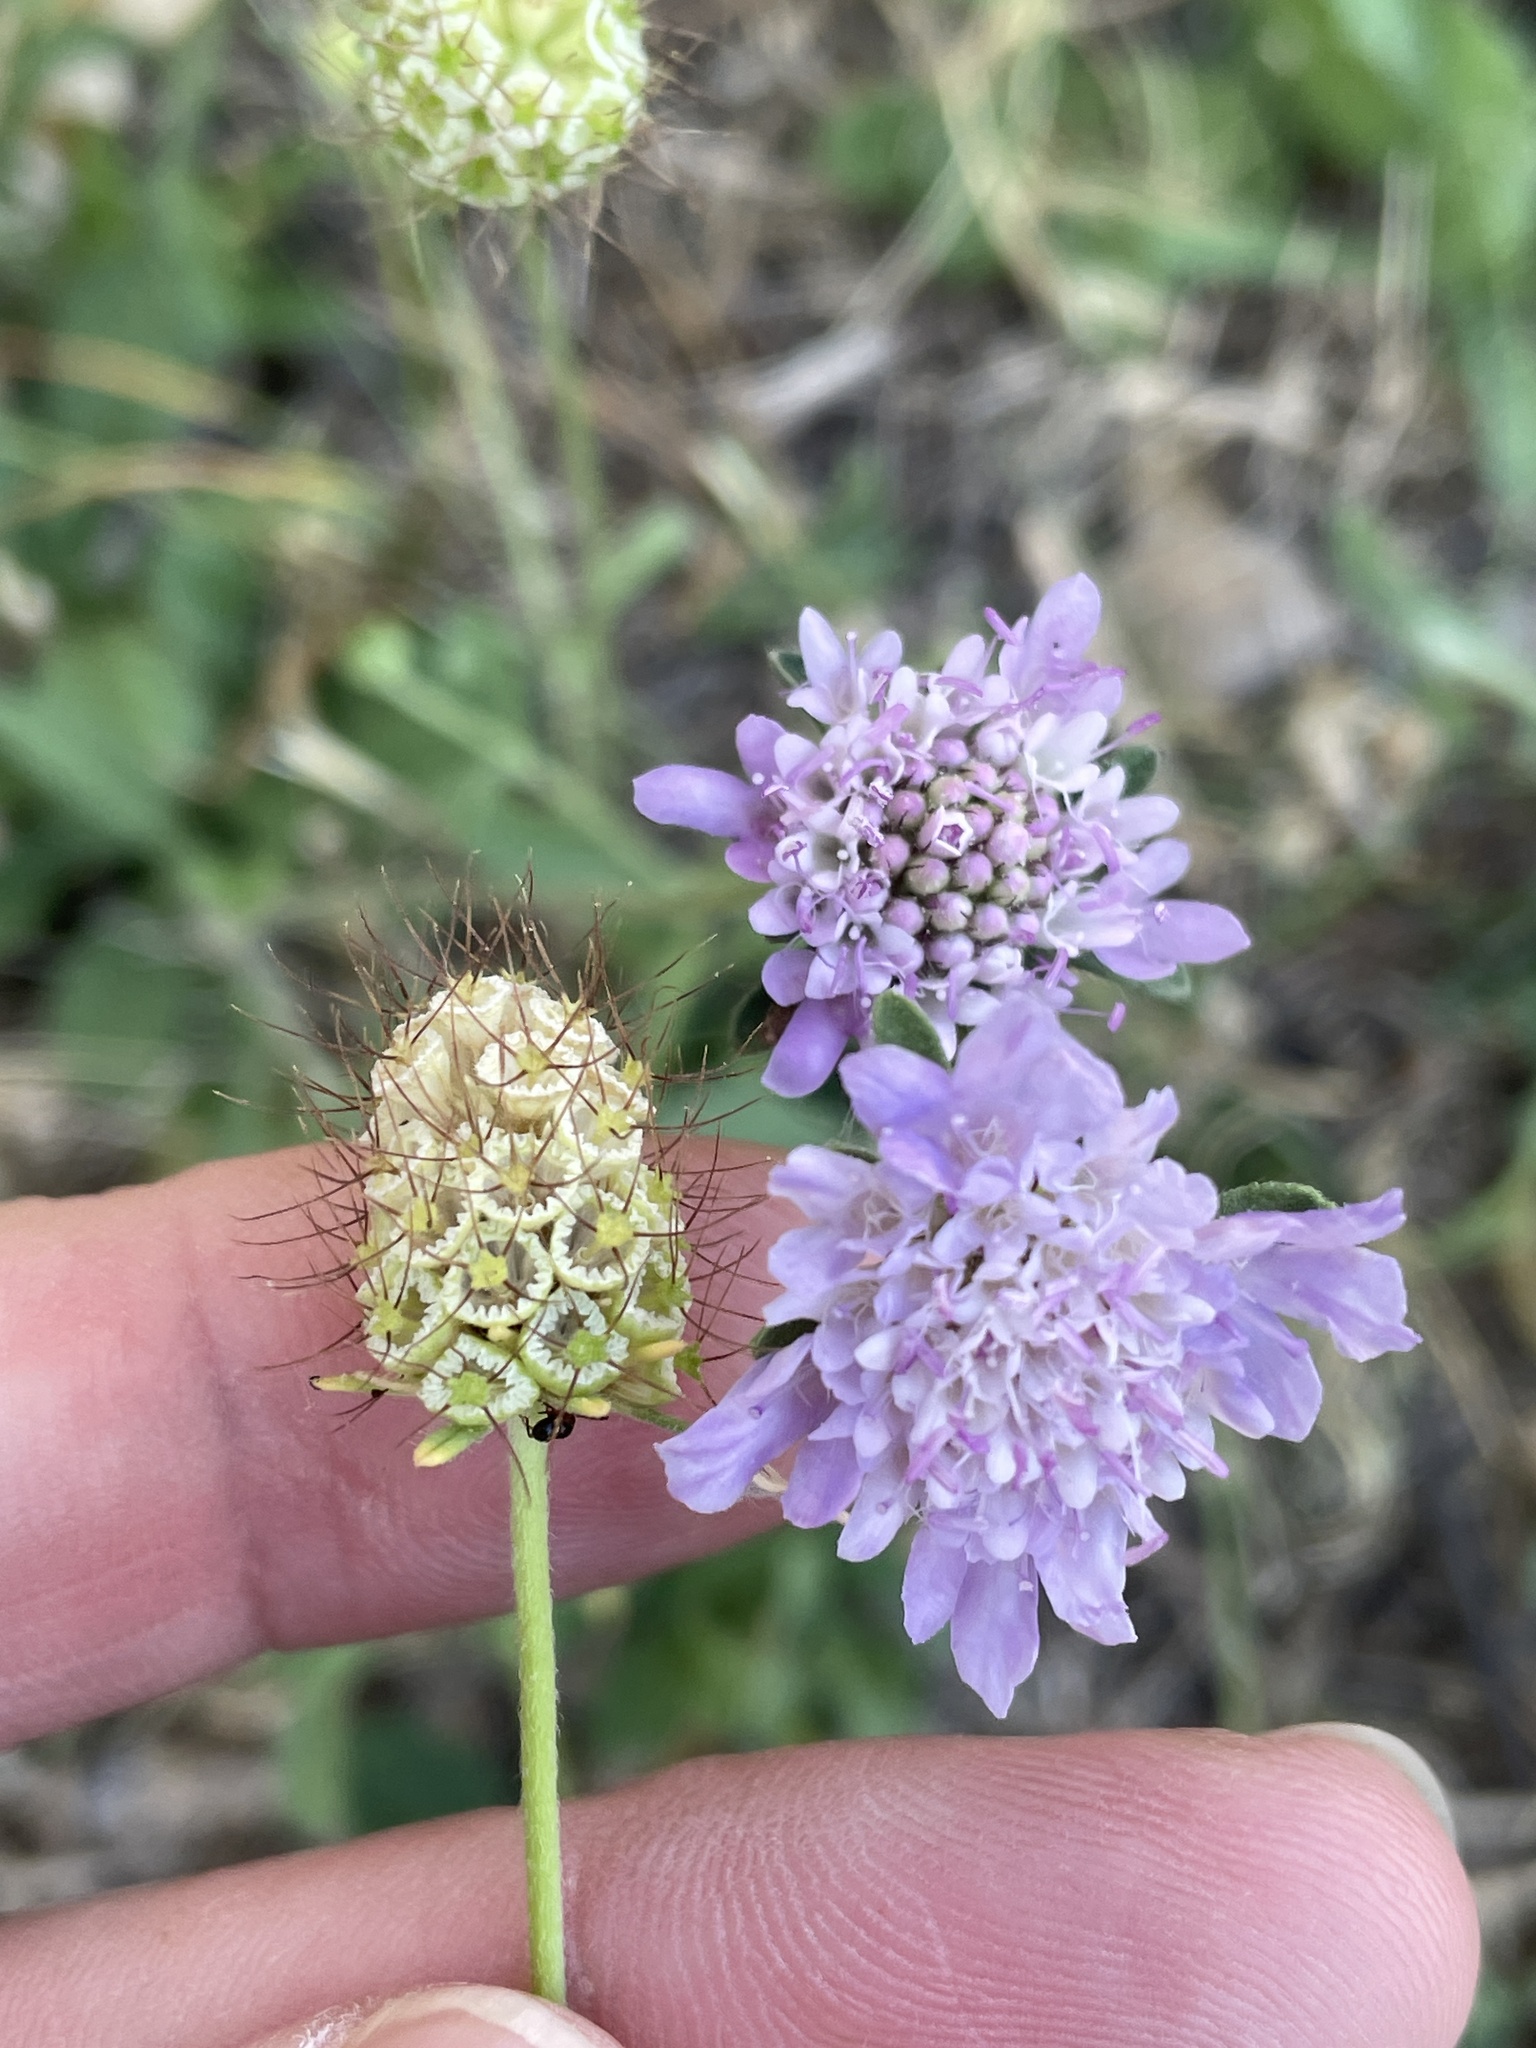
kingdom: Plantae
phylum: Tracheophyta
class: Magnoliopsida
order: Dipsacales
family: Caprifoliaceae
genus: Sixalix
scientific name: Sixalix atropurpurea
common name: Sweet scabious
